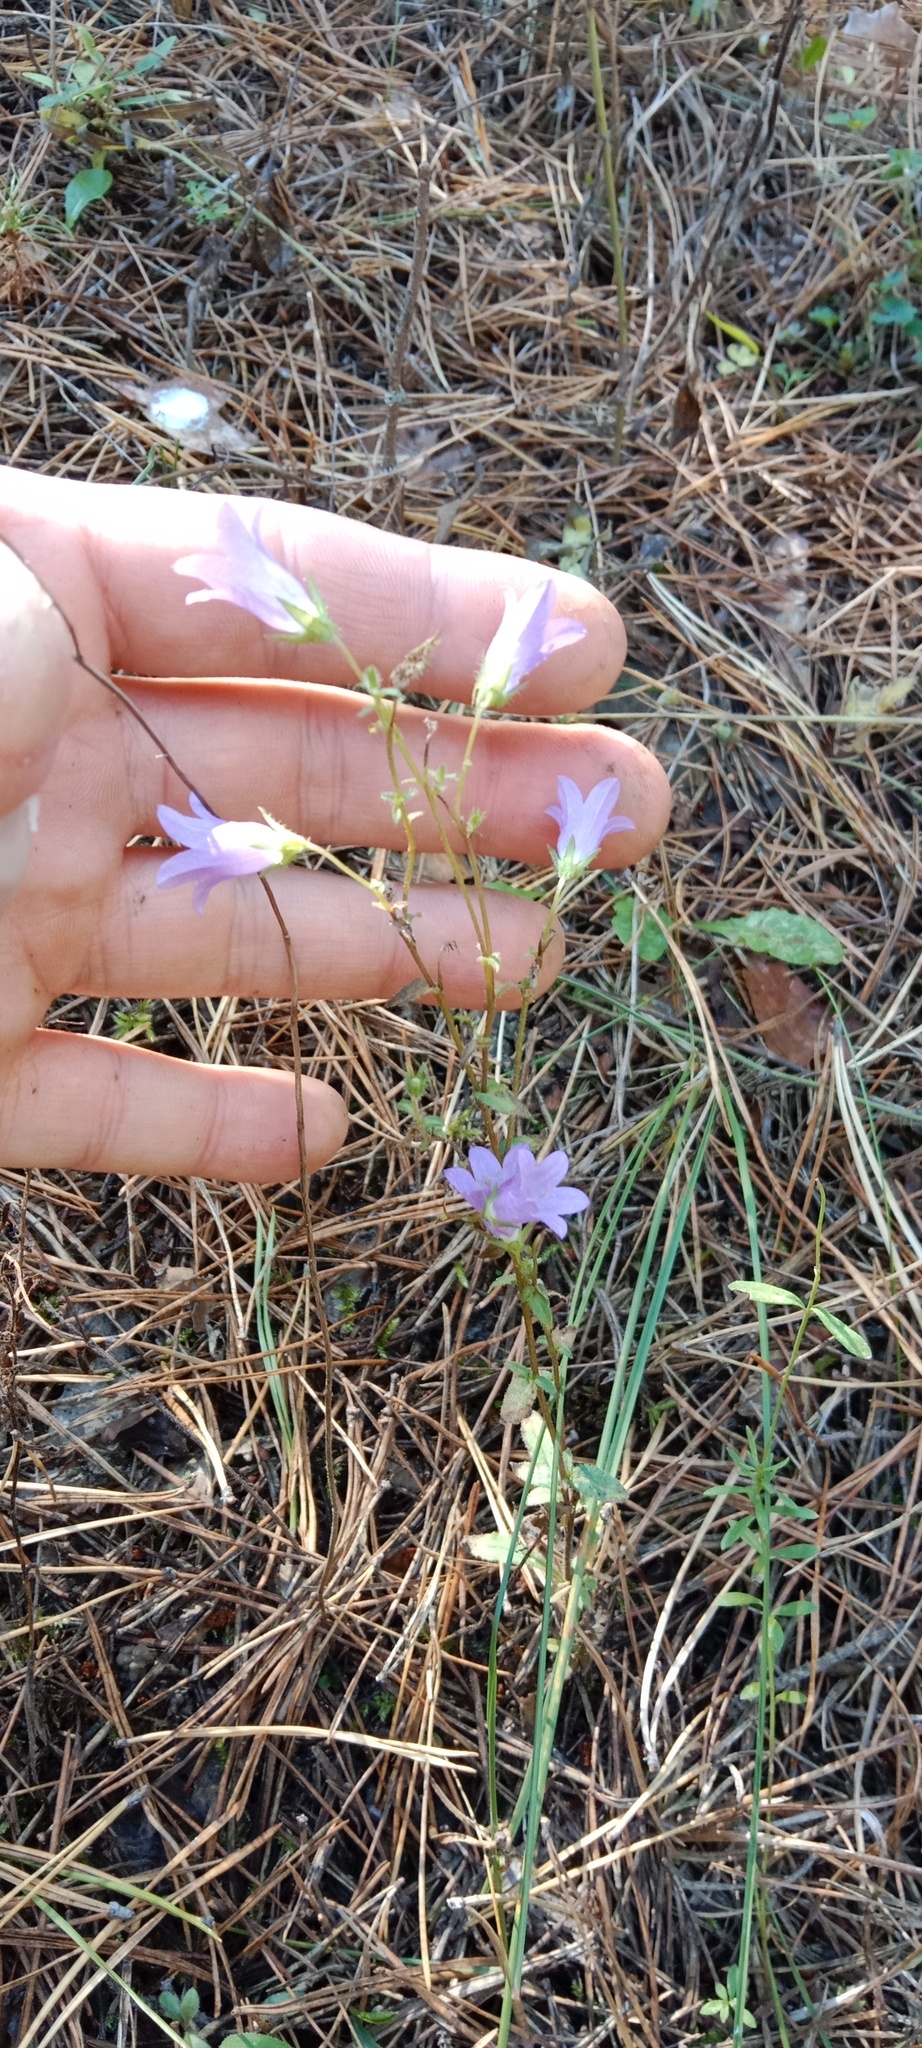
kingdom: Plantae
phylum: Tracheophyta
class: Magnoliopsida
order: Asterales
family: Campanulaceae
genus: Campanula
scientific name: Campanula sibirica
